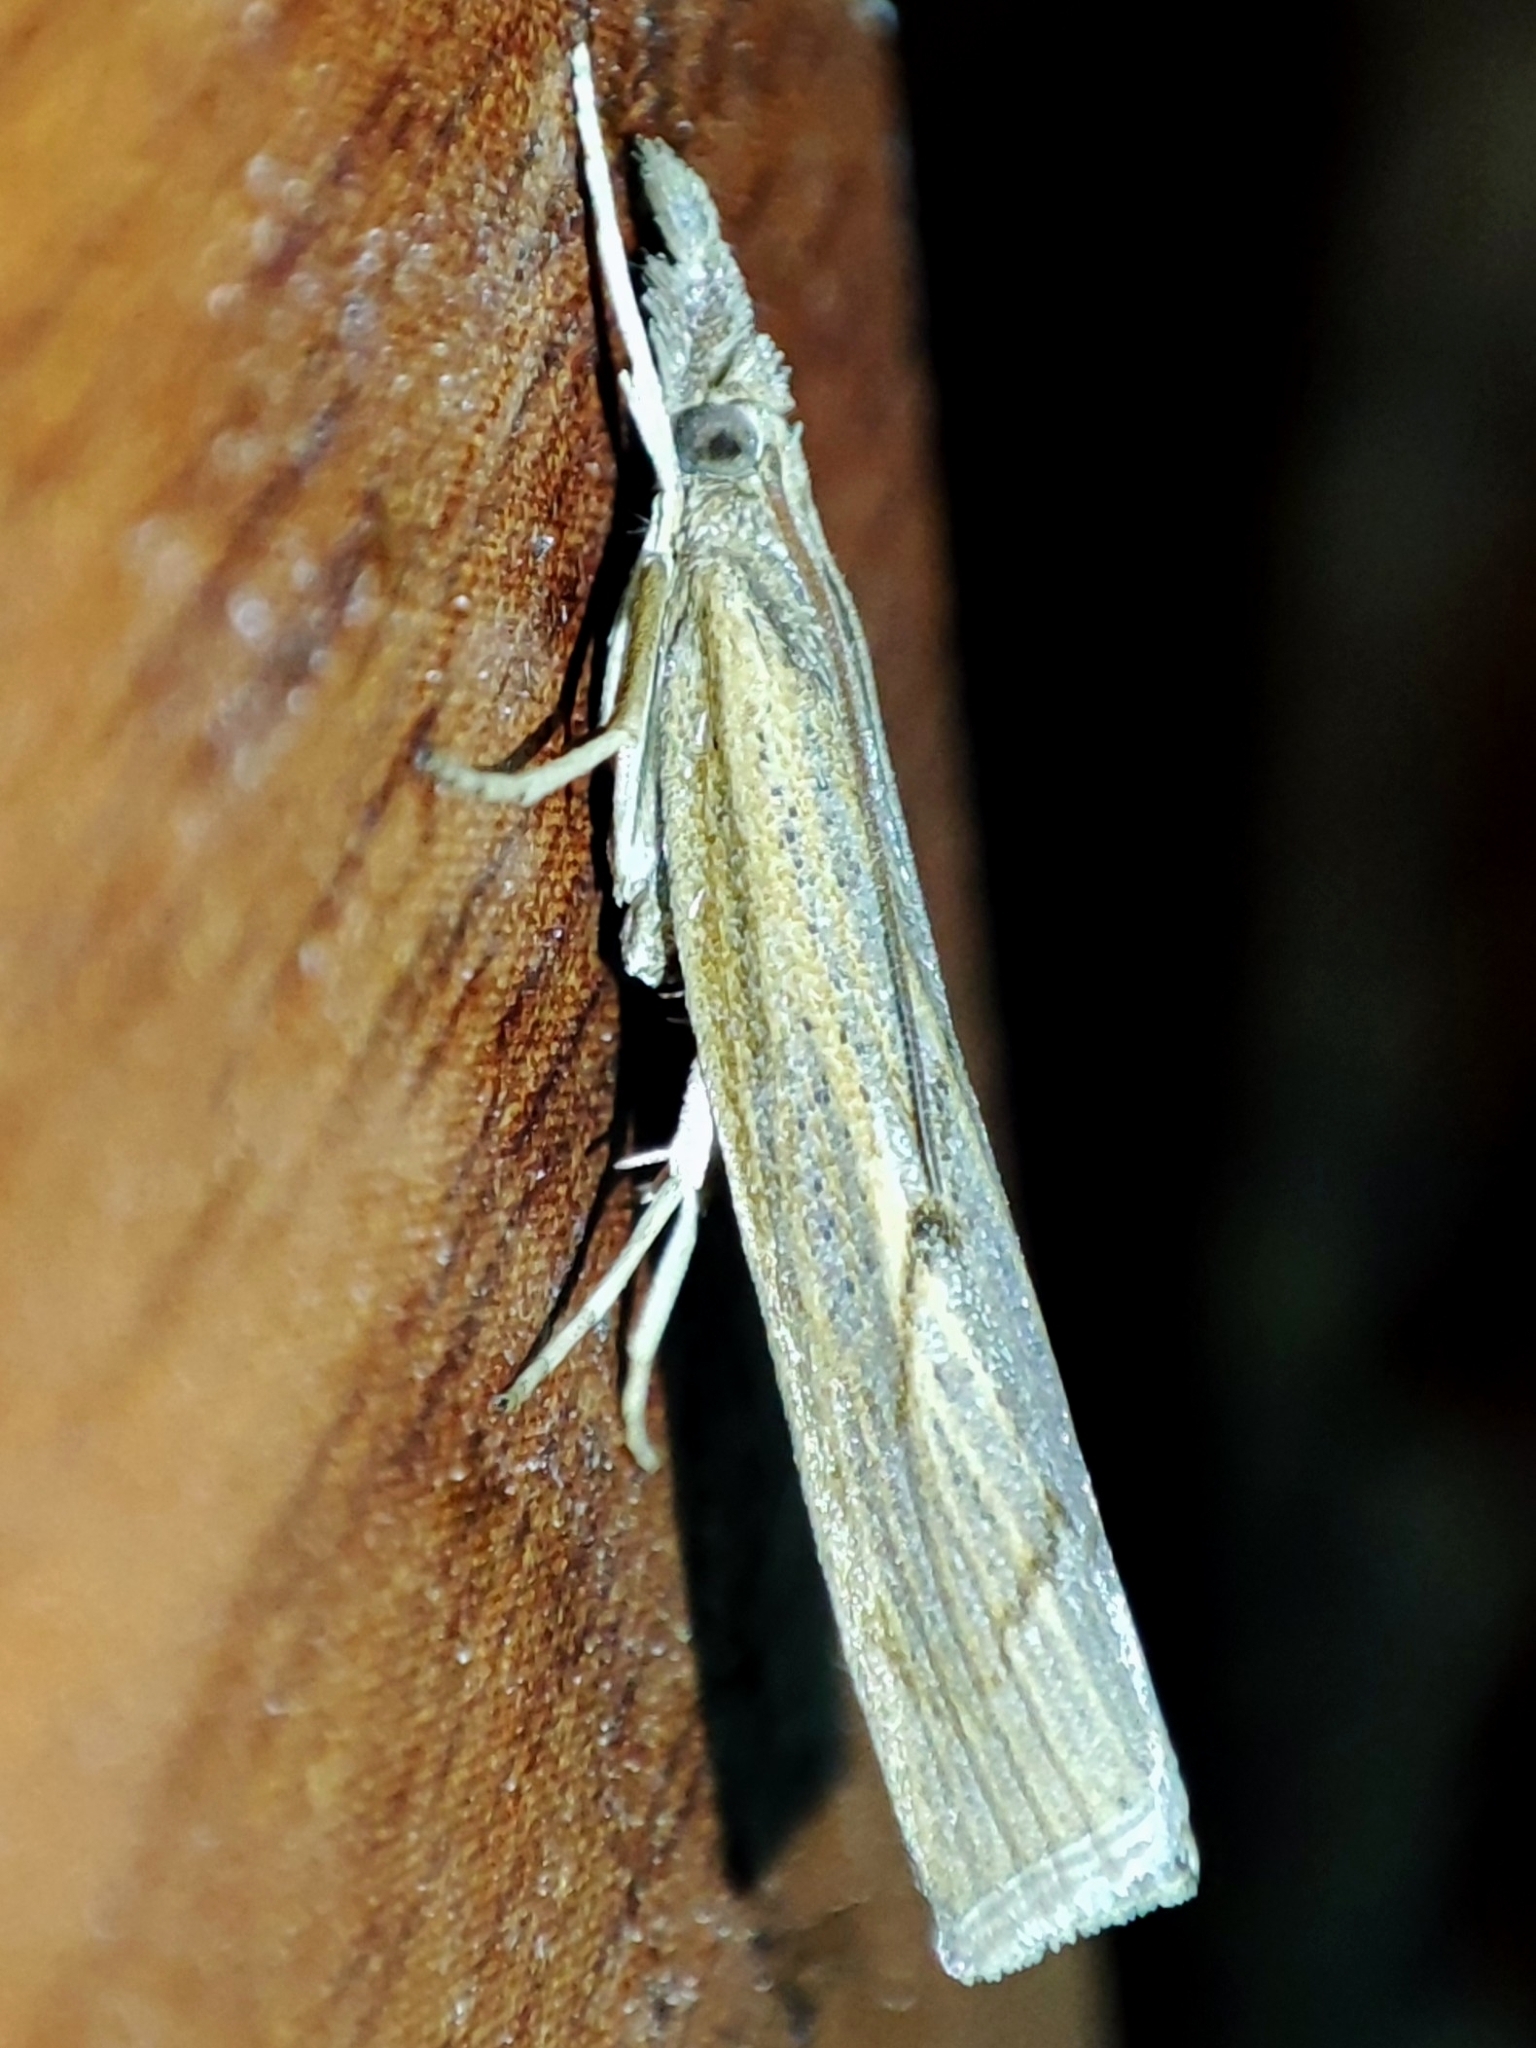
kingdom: Animalia
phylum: Arthropoda
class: Insecta
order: Lepidoptera
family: Crambidae
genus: Pediasia
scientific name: Pediasia contaminella
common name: Waste grass-veneer
